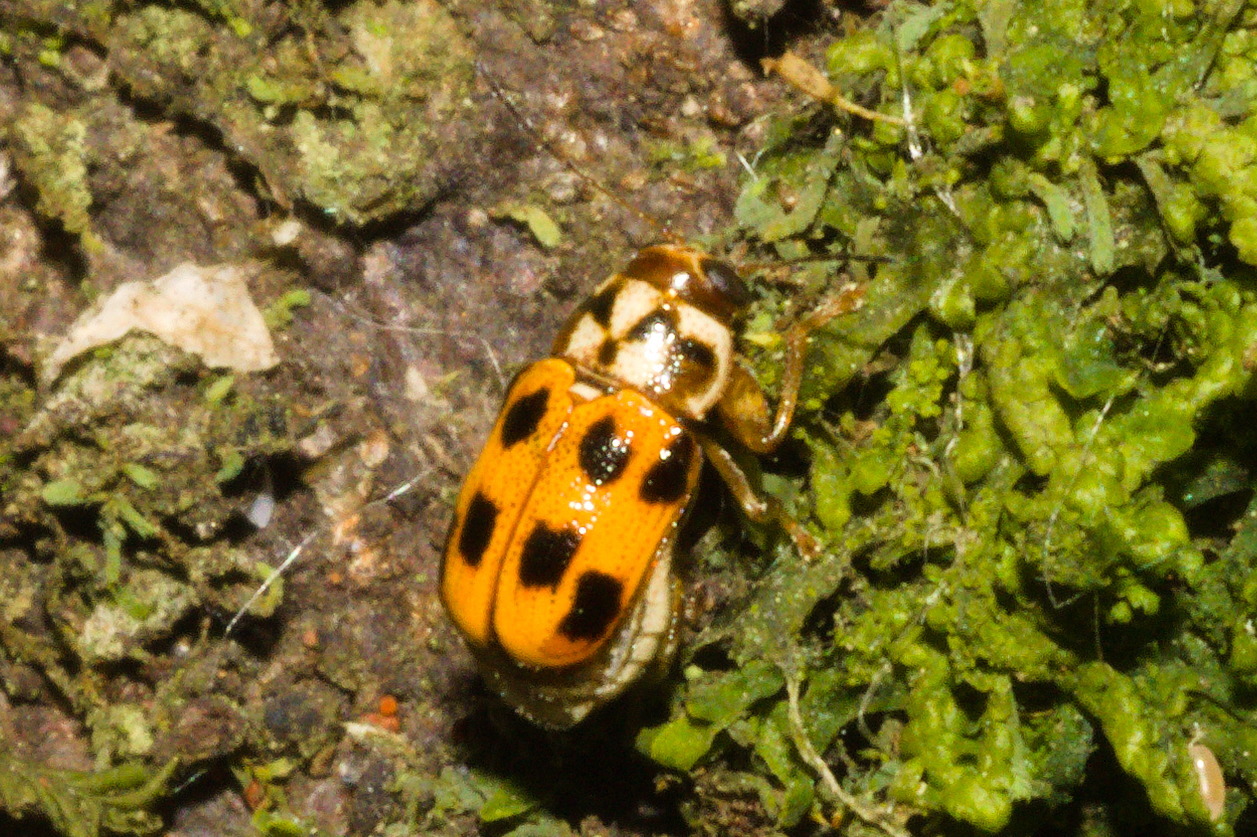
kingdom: Animalia
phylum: Arthropoda
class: Insecta
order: Coleoptera
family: Chrysomelidae
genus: Metallactus
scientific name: Metallactus
